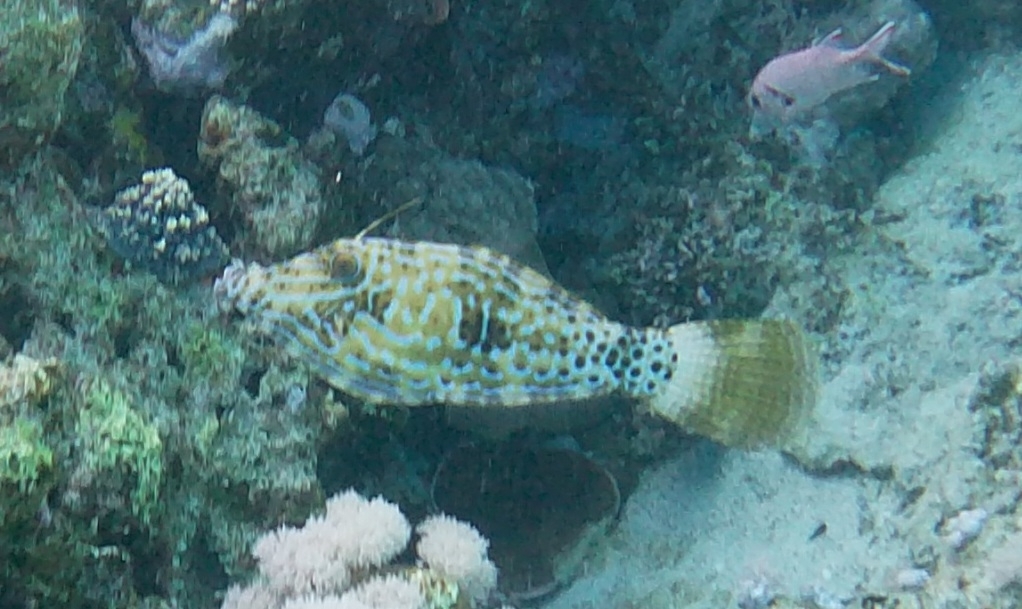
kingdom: Animalia
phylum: Chordata
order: Tetraodontiformes
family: Monacanthidae
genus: Aluterus
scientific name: Aluterus scriptus
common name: Scribbled leatherjacket filefish
